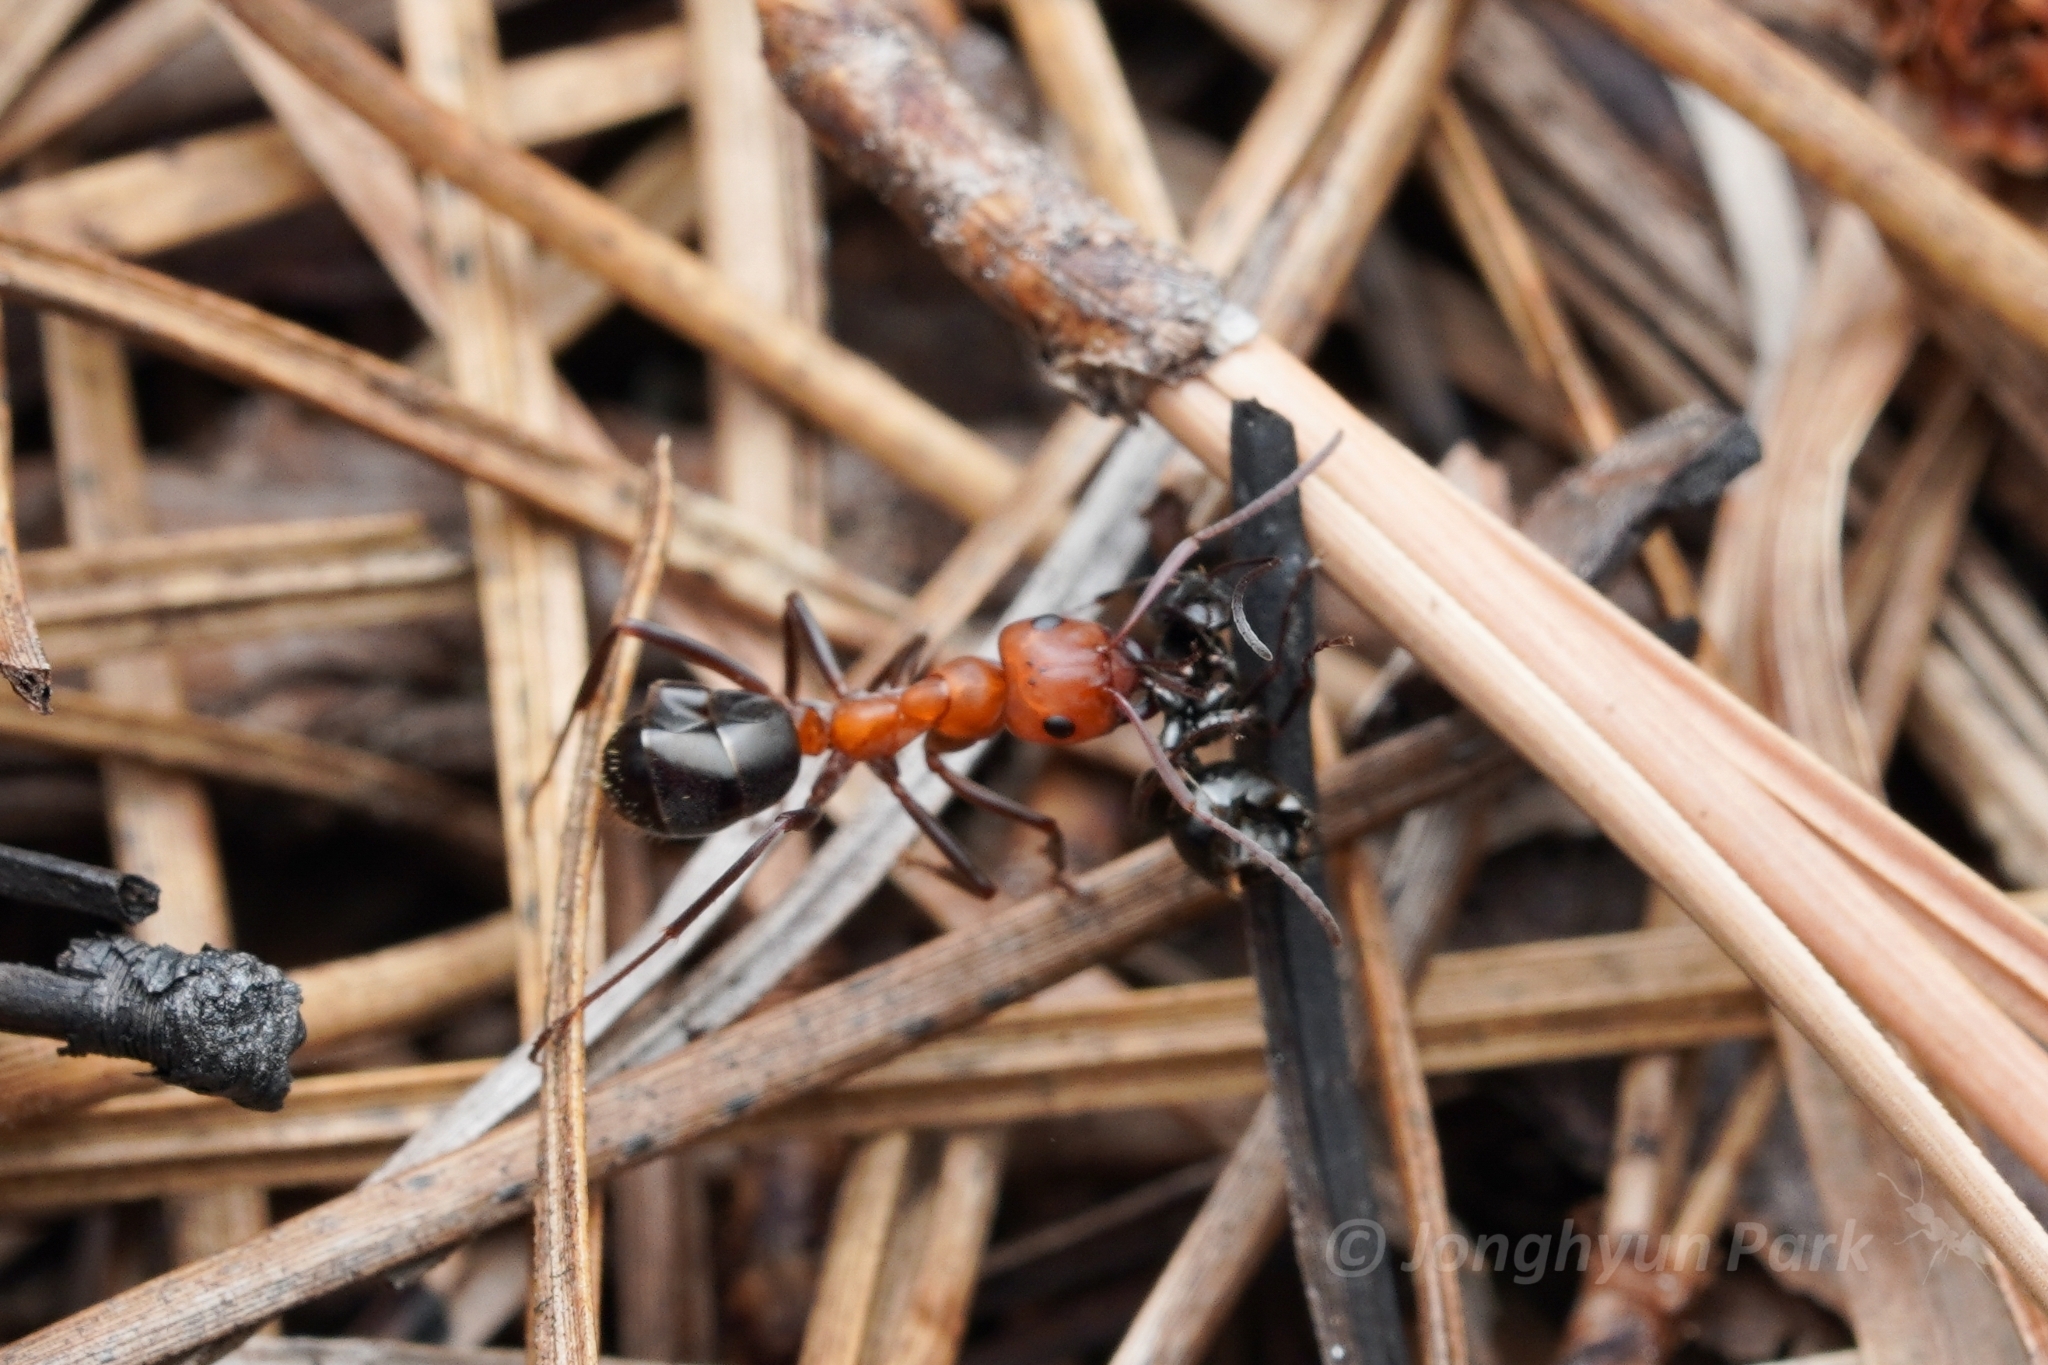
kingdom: Animalia
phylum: Arthropoda
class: Insecta
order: Hymenoptera
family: Formicidae
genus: Formica
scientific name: Formica exsectoides
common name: Allegheny mound ant
